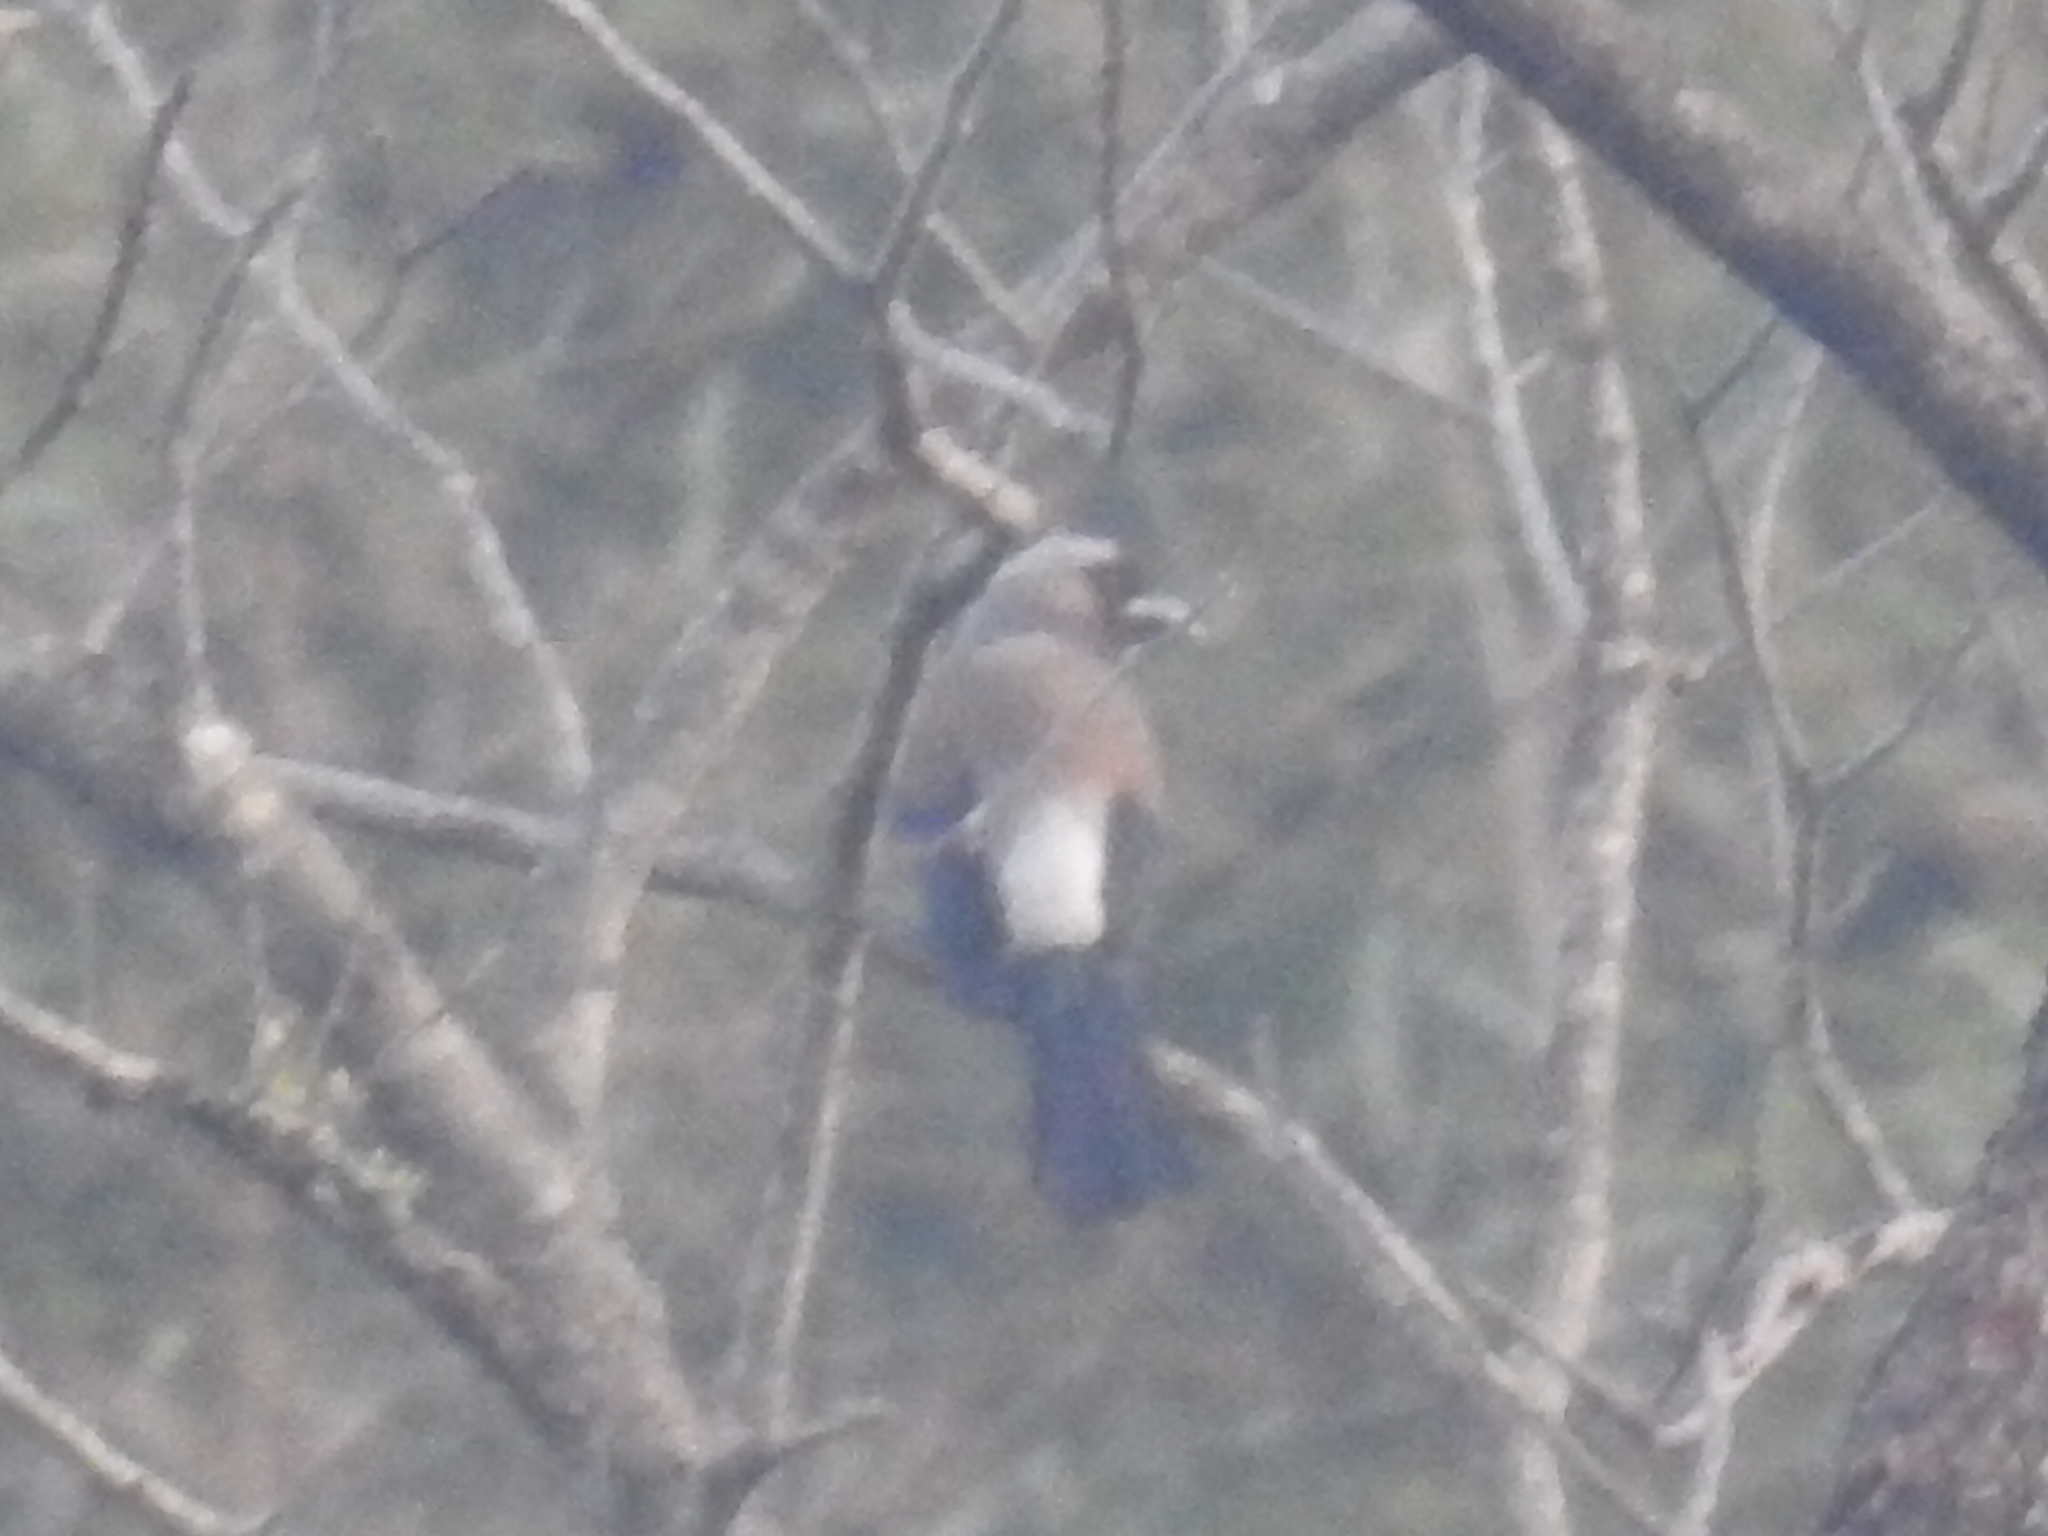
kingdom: Animalia
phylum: Chordata
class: Aves
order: Passeriformes
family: Corvidae
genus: Dendrocitta
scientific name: Dendrocitta formosae
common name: Grey treepie
